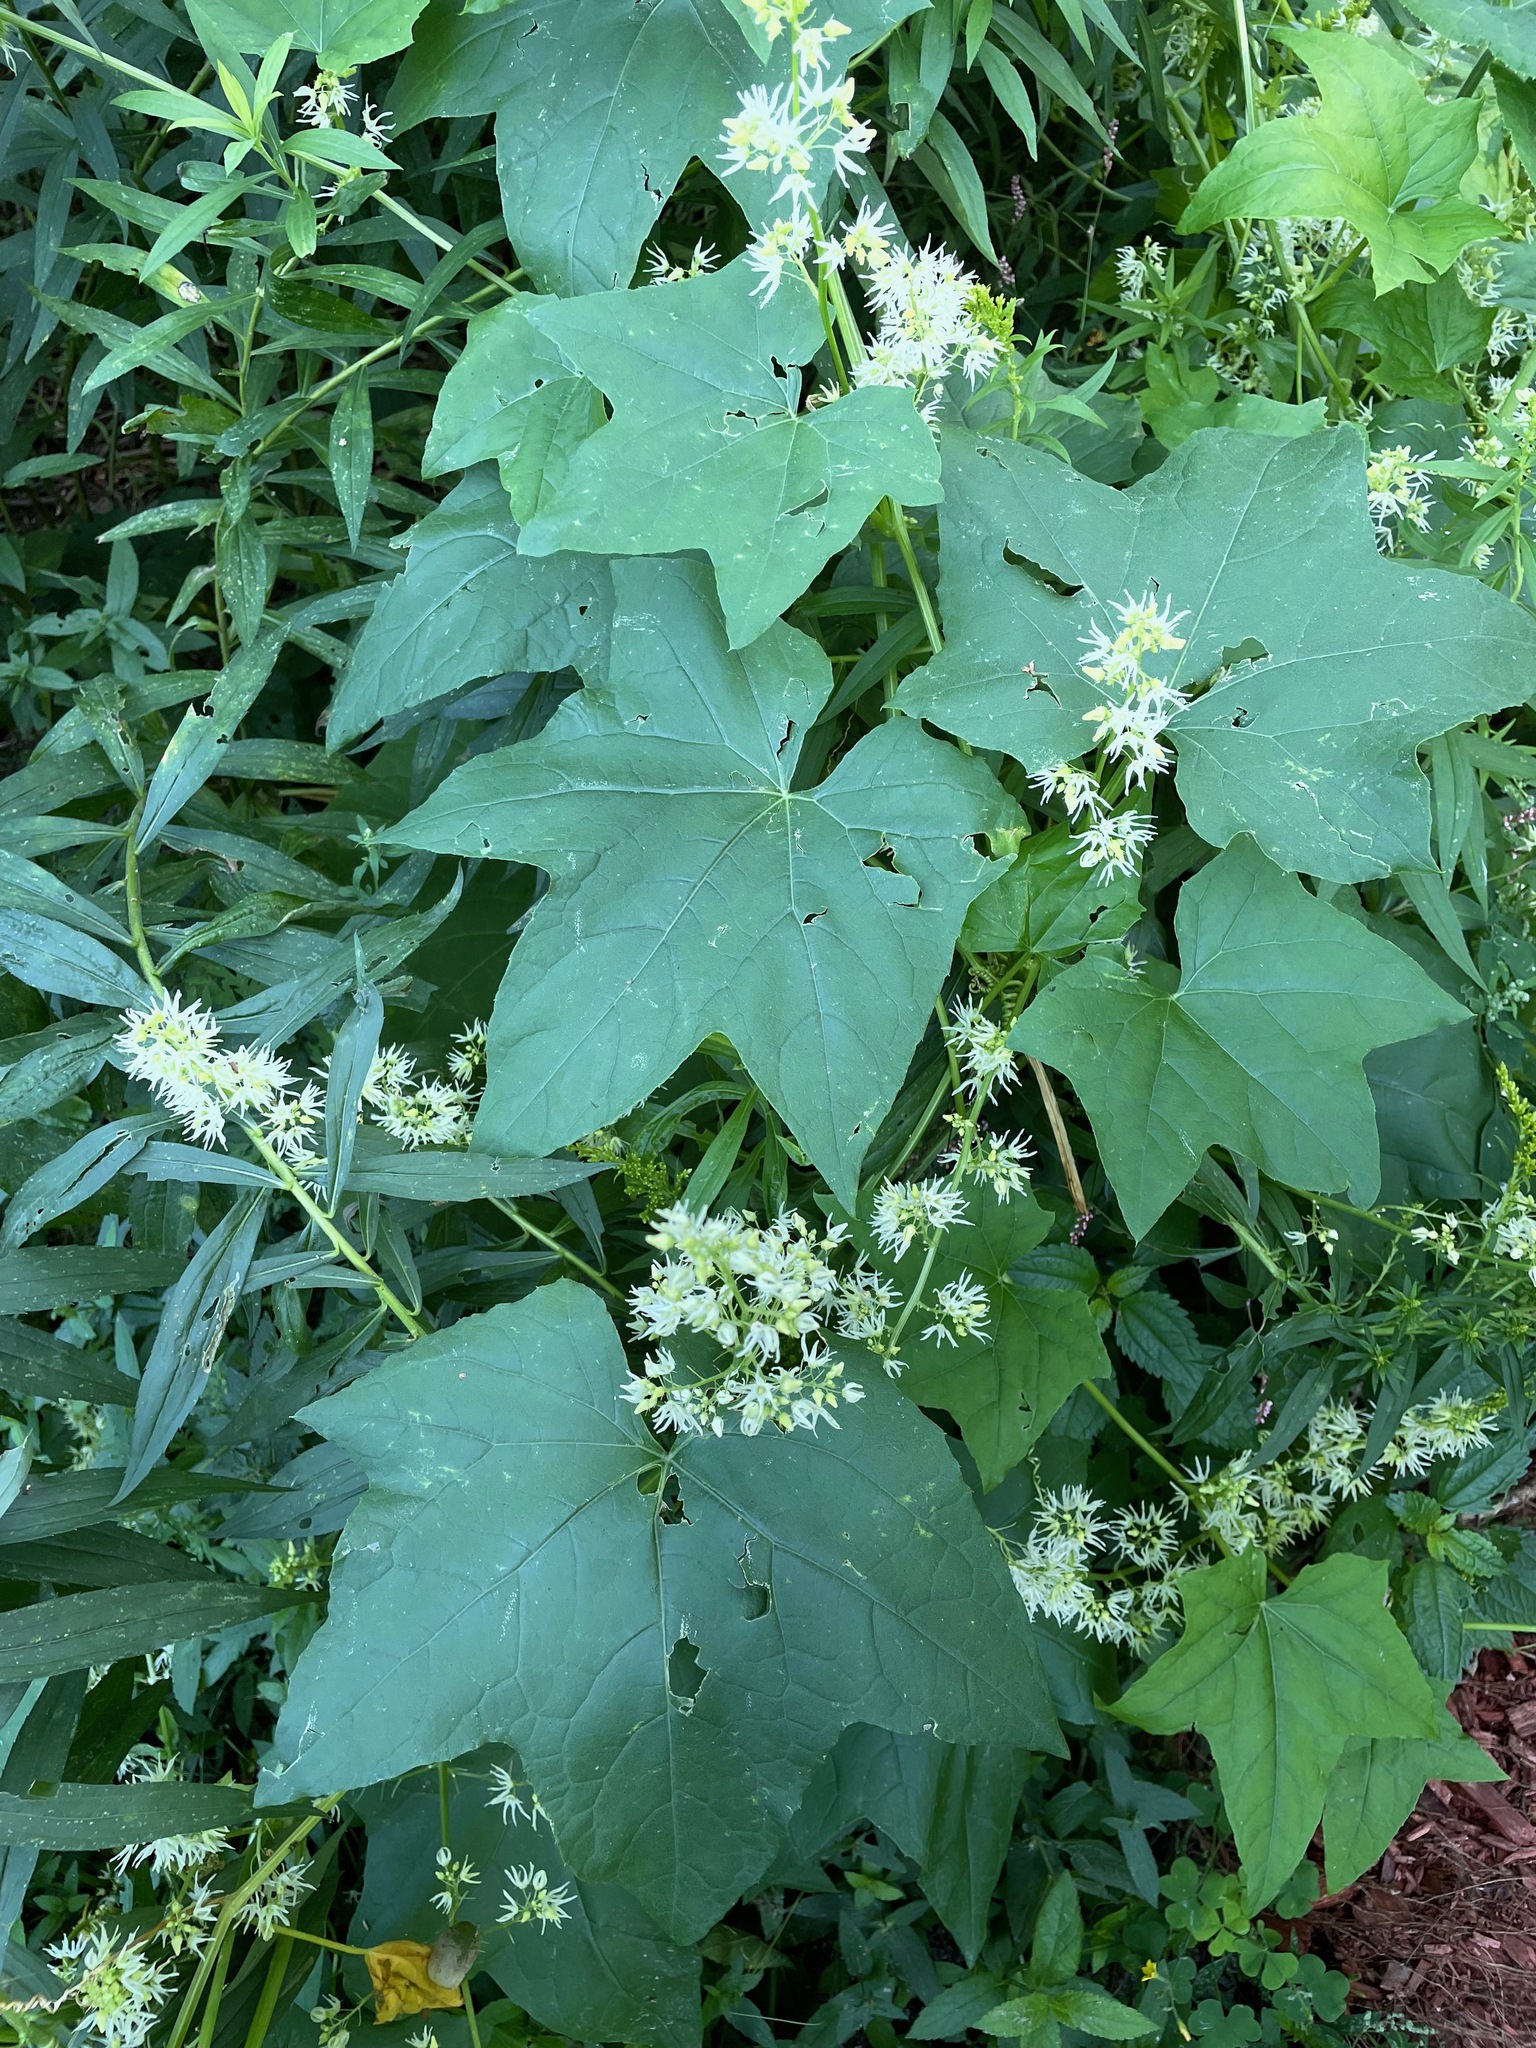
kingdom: Plantae
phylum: Tracheophyta
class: Magnoliopsida
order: Cucurbitales
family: Cucurbitaceae
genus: Echinocystis
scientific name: Echinocystis lobata
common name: Wild cucumber
